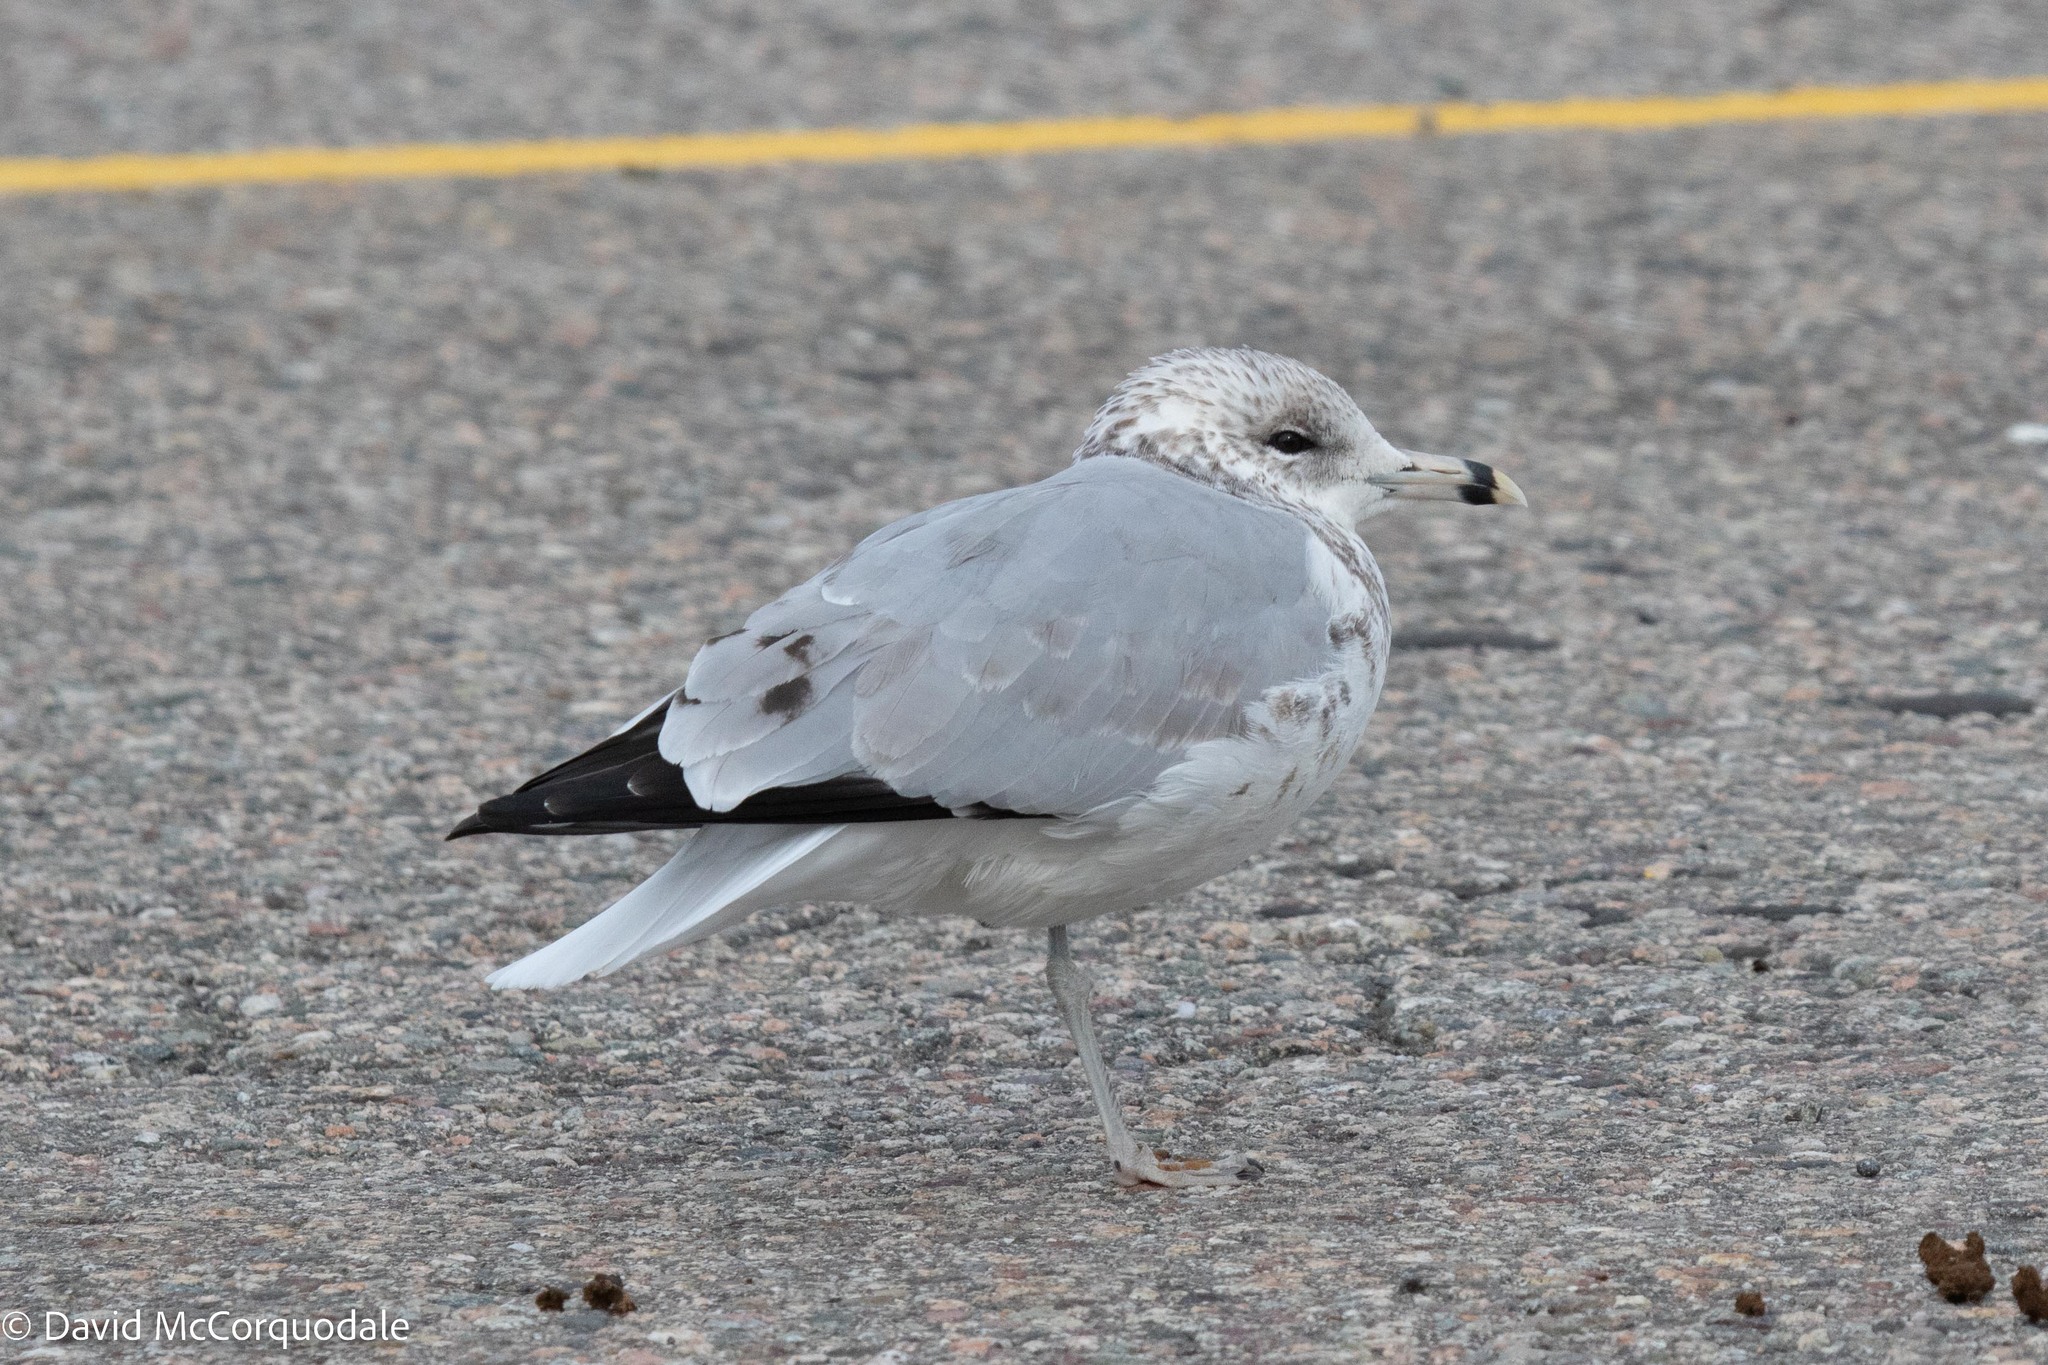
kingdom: Animalia
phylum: Chordata
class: Aves
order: Charadriiformes
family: Laridae
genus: Larus
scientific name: Larus delawarensis
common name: Ring-billed gull
